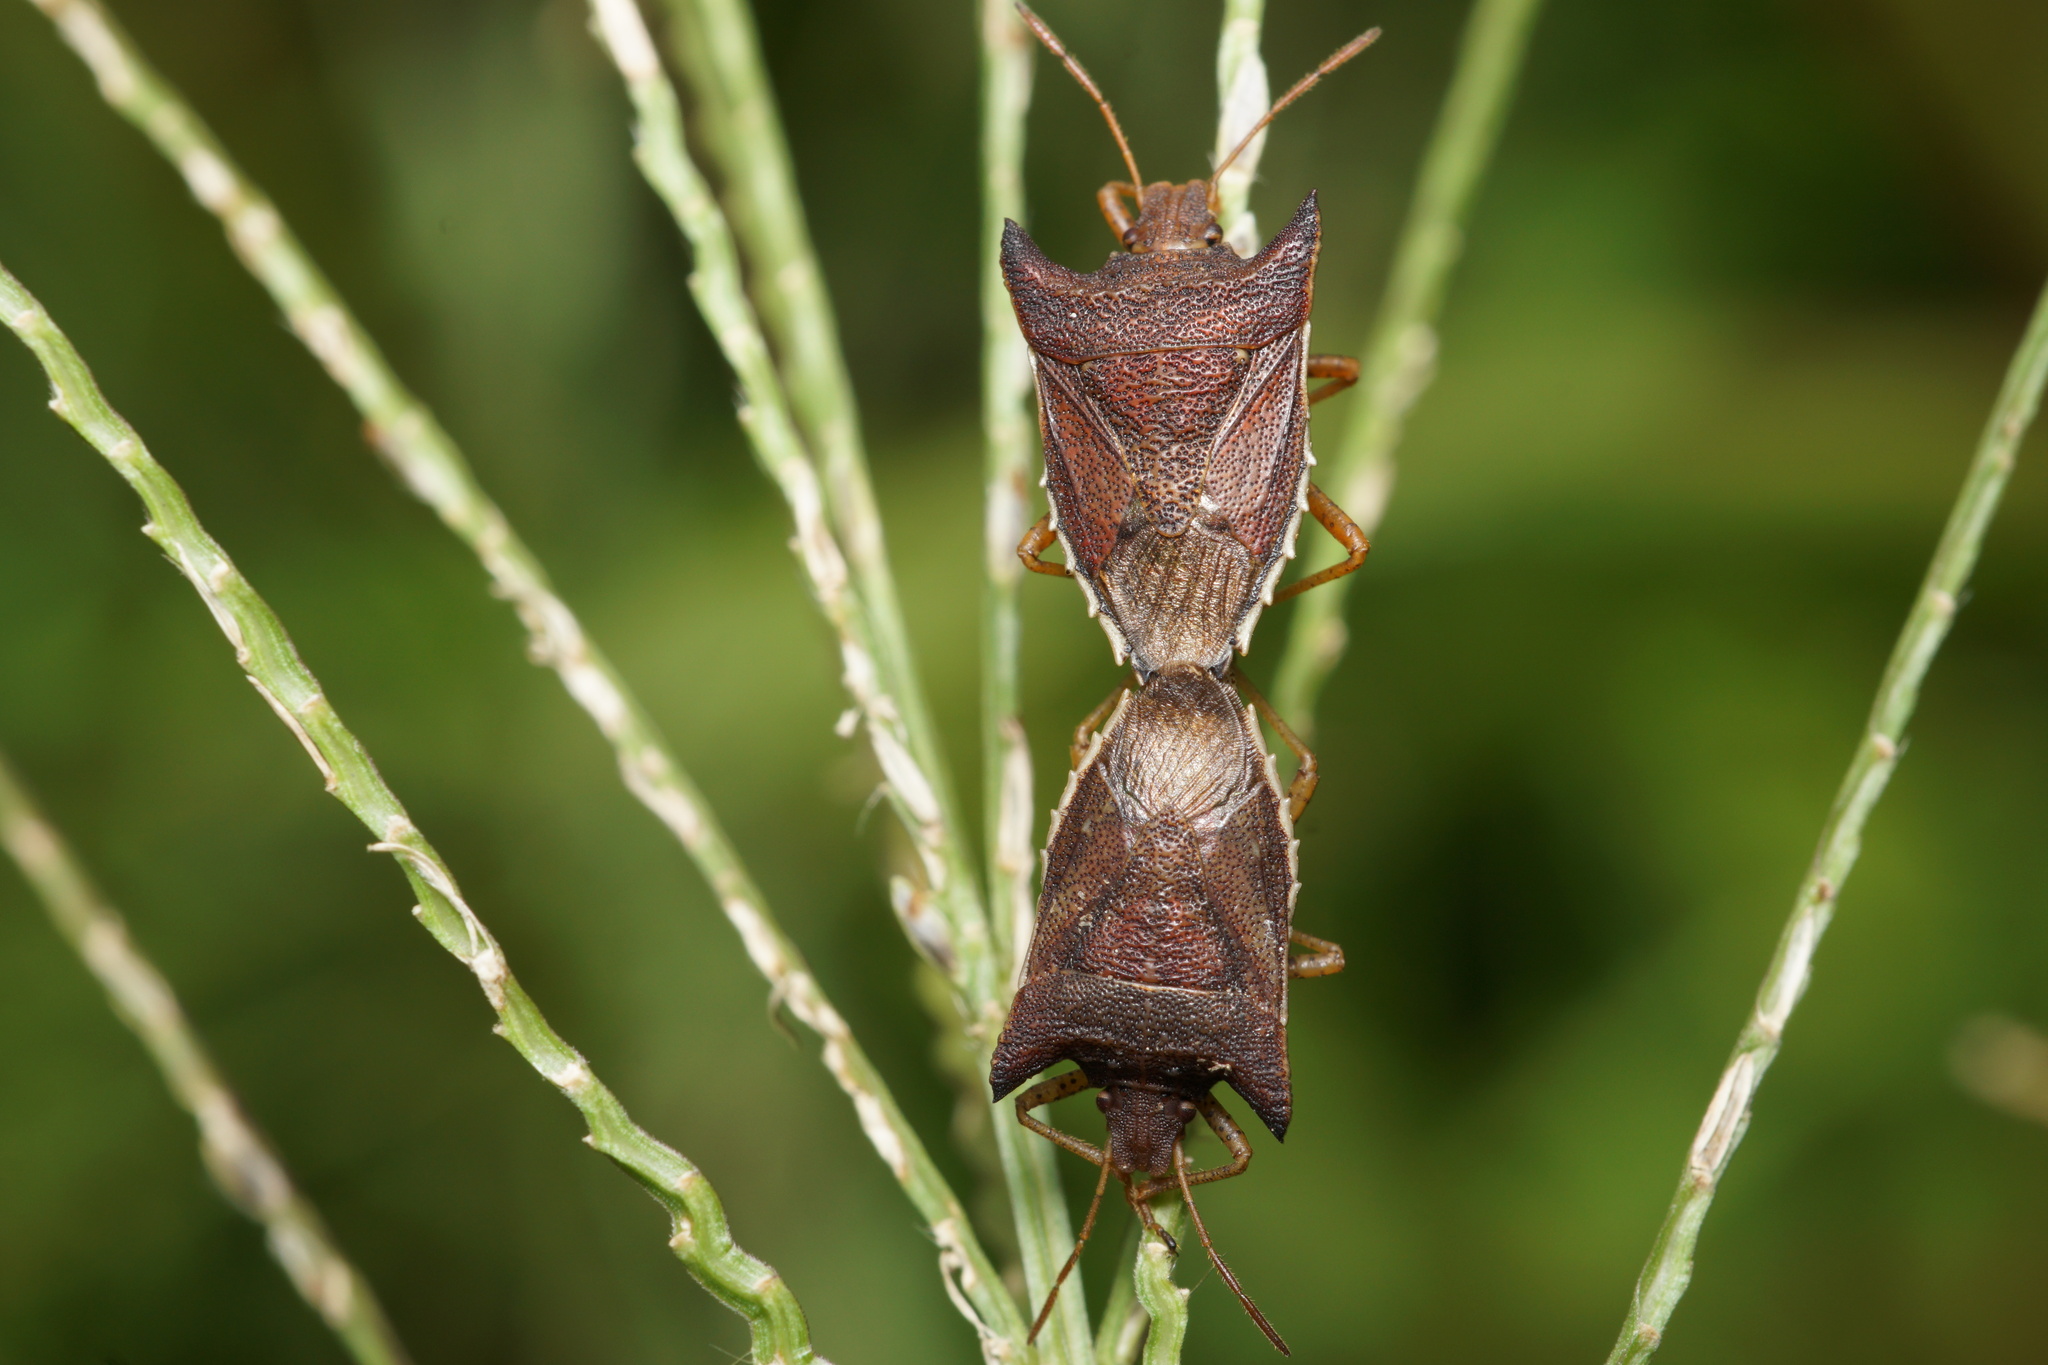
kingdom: Animalia
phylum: Arthropoda
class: Insecta
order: Hemiptera
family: Pentatomidae
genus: Caonabo
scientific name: Caonabo pseudoscylax
